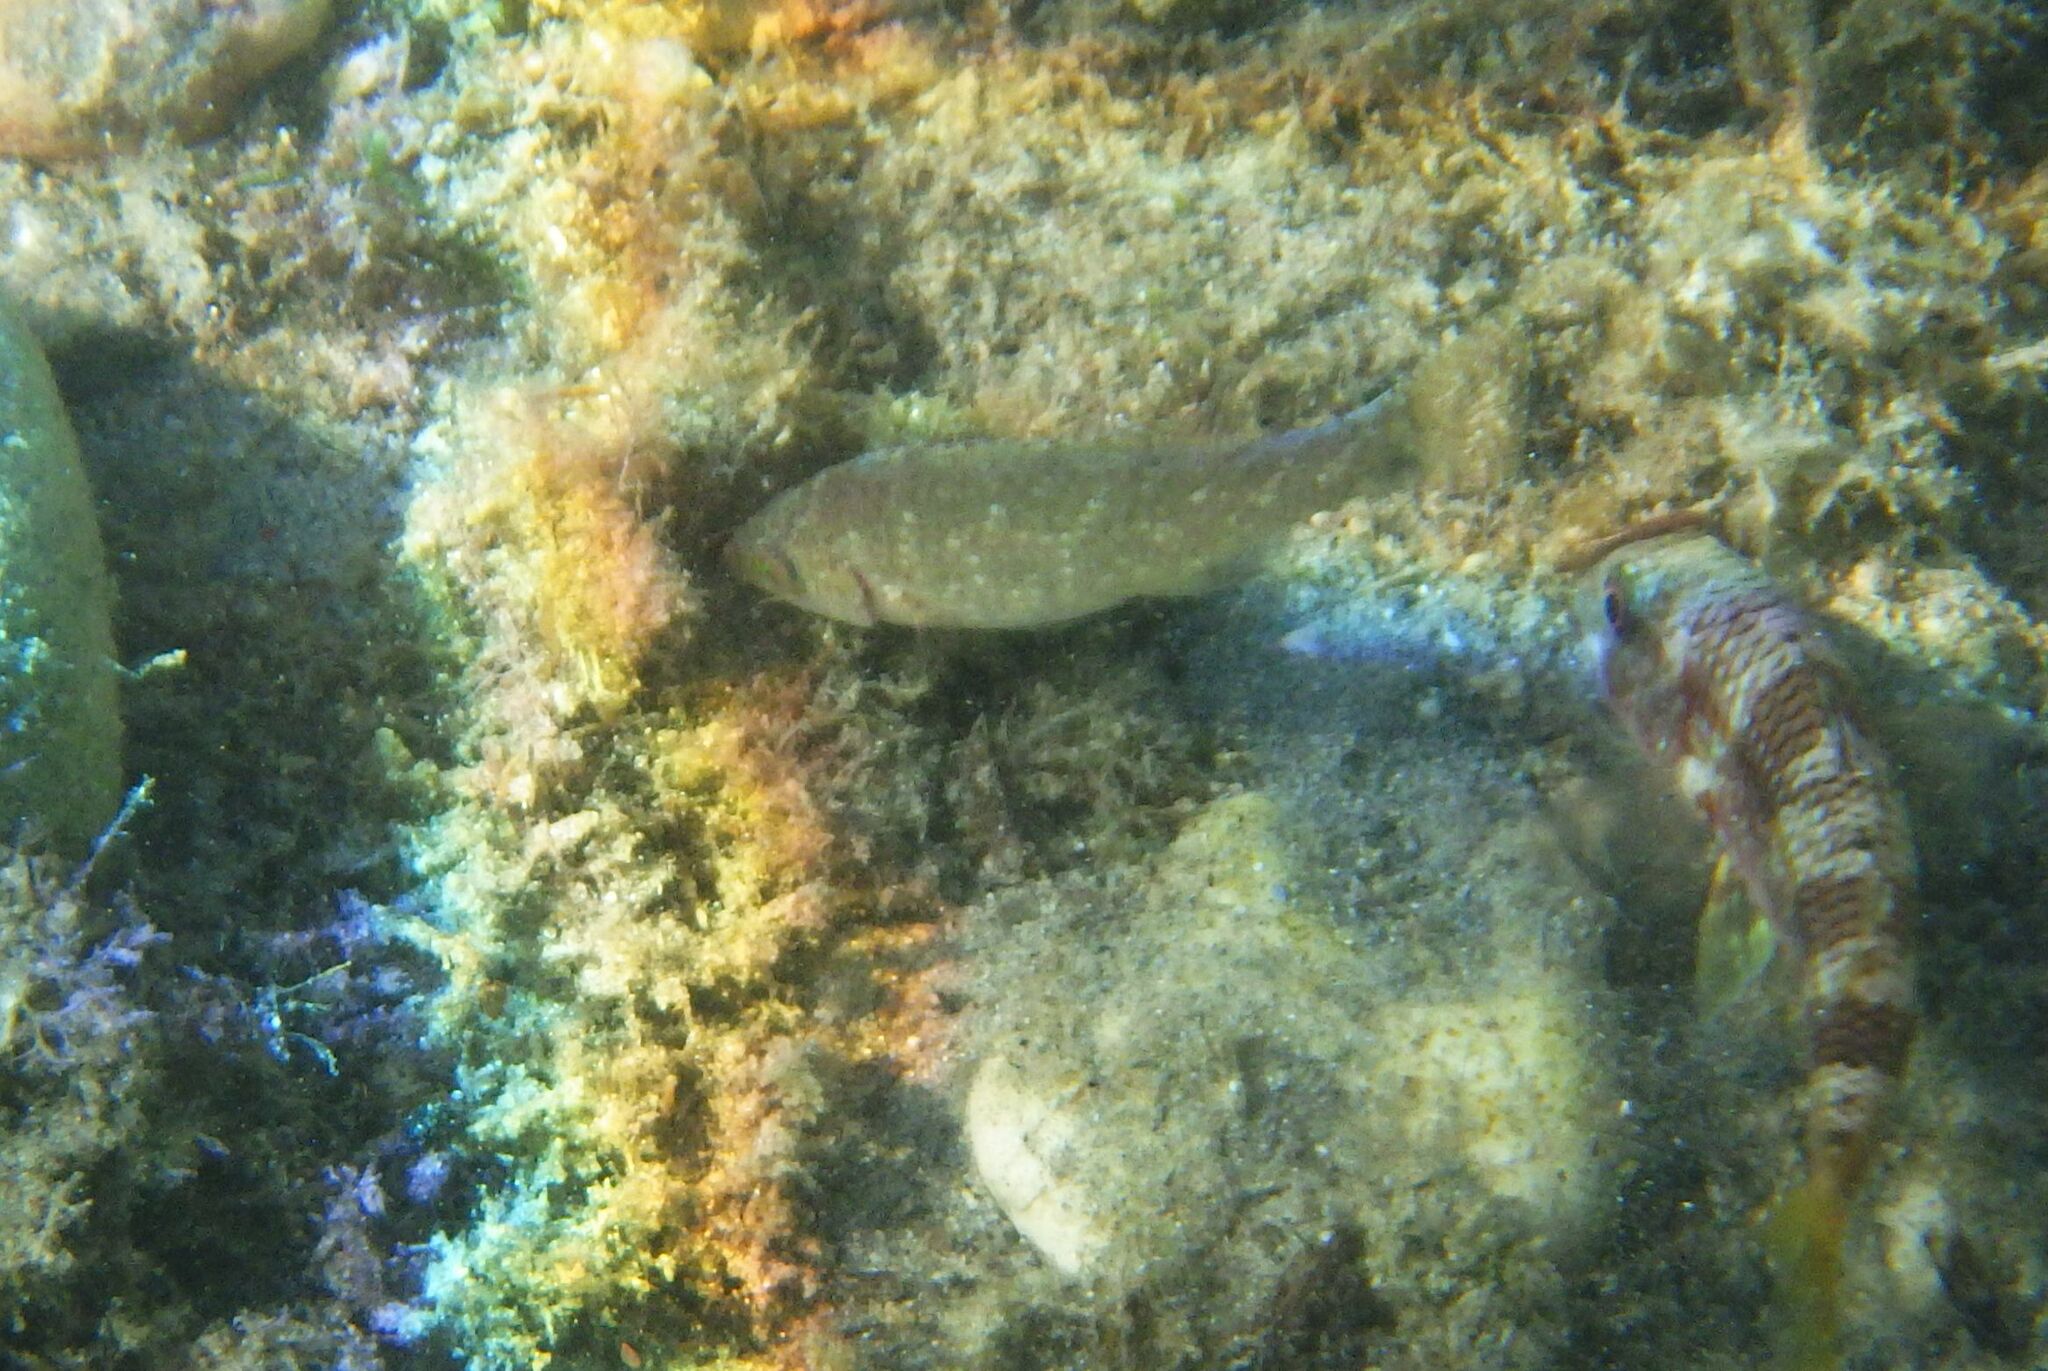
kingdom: Animalia
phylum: Chordata
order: Perciformes
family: Labridae
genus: Symphodus
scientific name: Symphodus cinereus
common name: Grey wrasse
